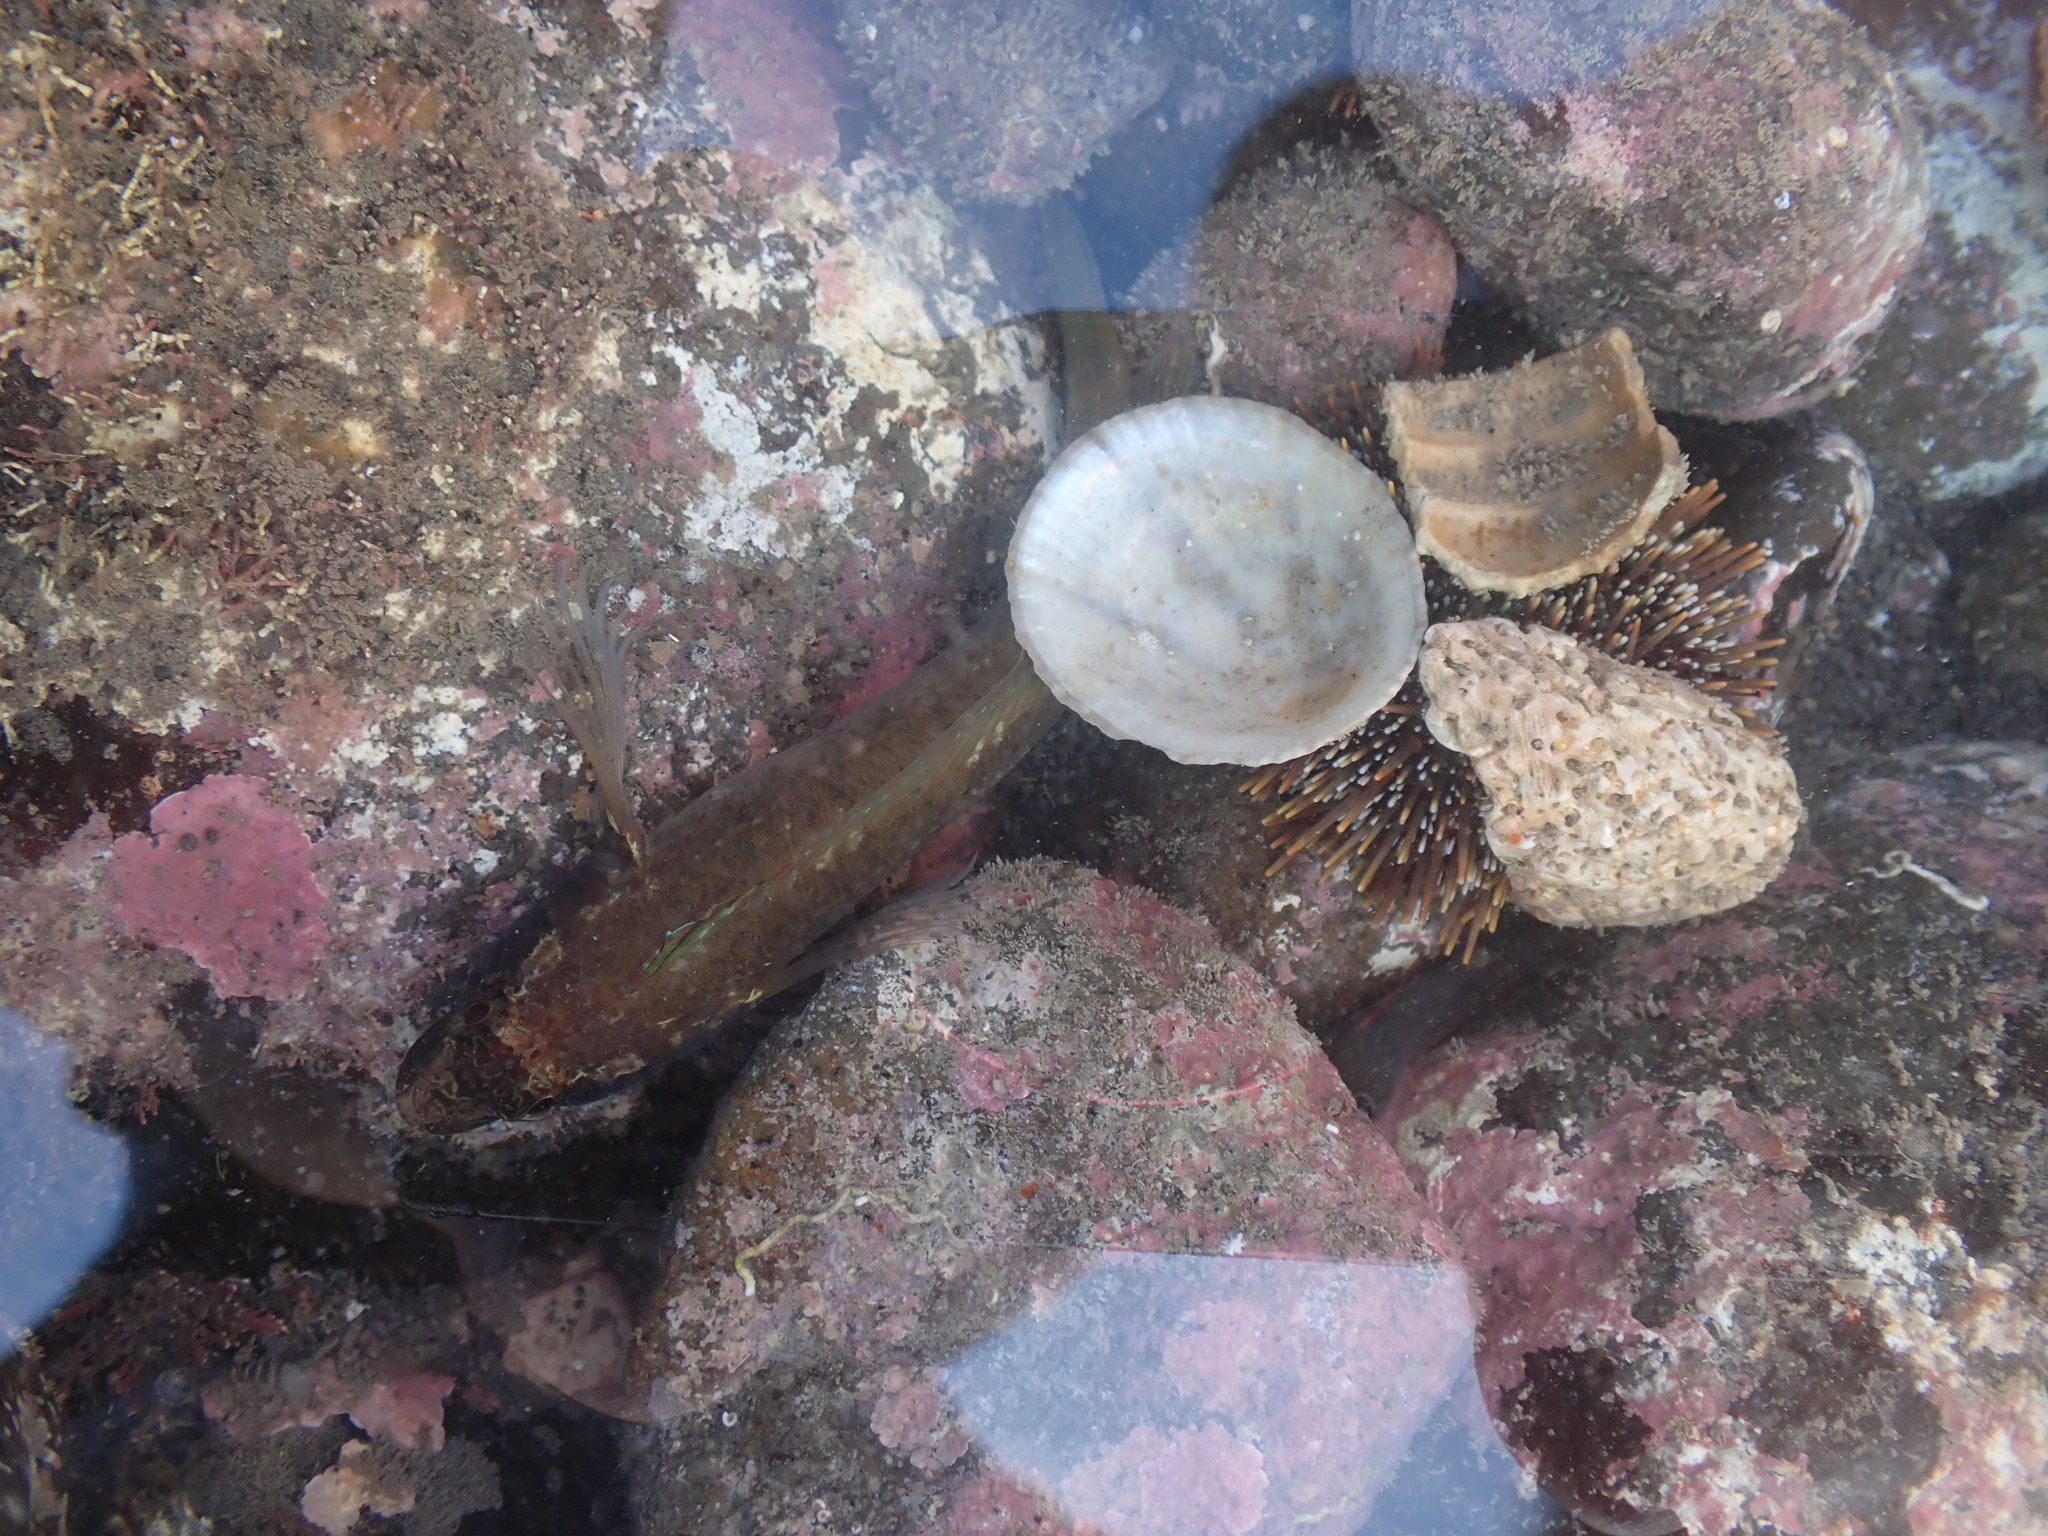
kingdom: Animalia
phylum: Chordata
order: Perciformes
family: Tripterygiidae
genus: Ruanoho
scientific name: Ruanoho decemdigitatus
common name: Longfinned triplefin
